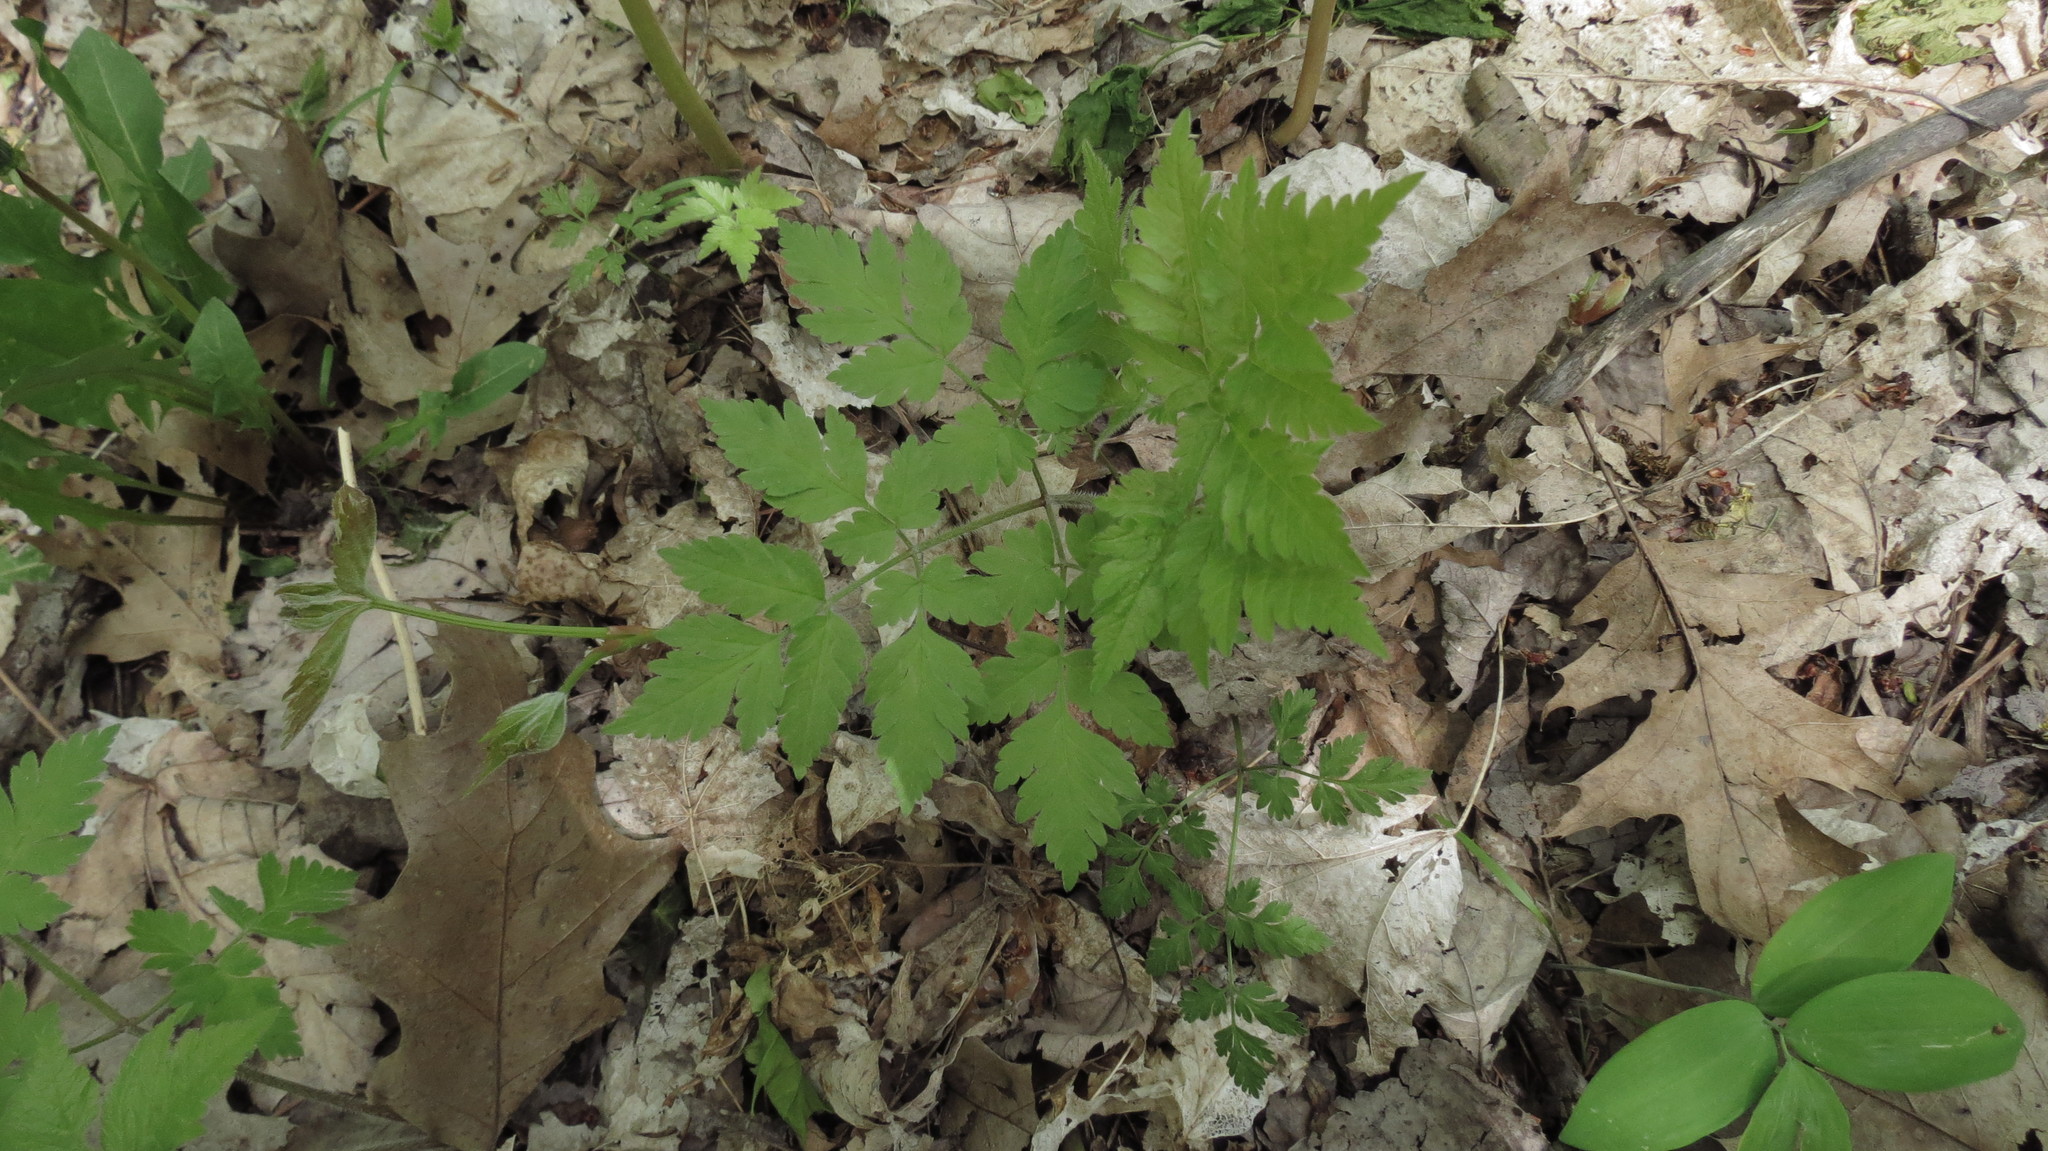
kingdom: Plantae
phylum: Tracheophyta
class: Magnoliopsida
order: Apiales
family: Apiaceae
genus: Osmorhiza
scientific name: Osmorhiza claytonii
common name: Hairy sweet cicely
